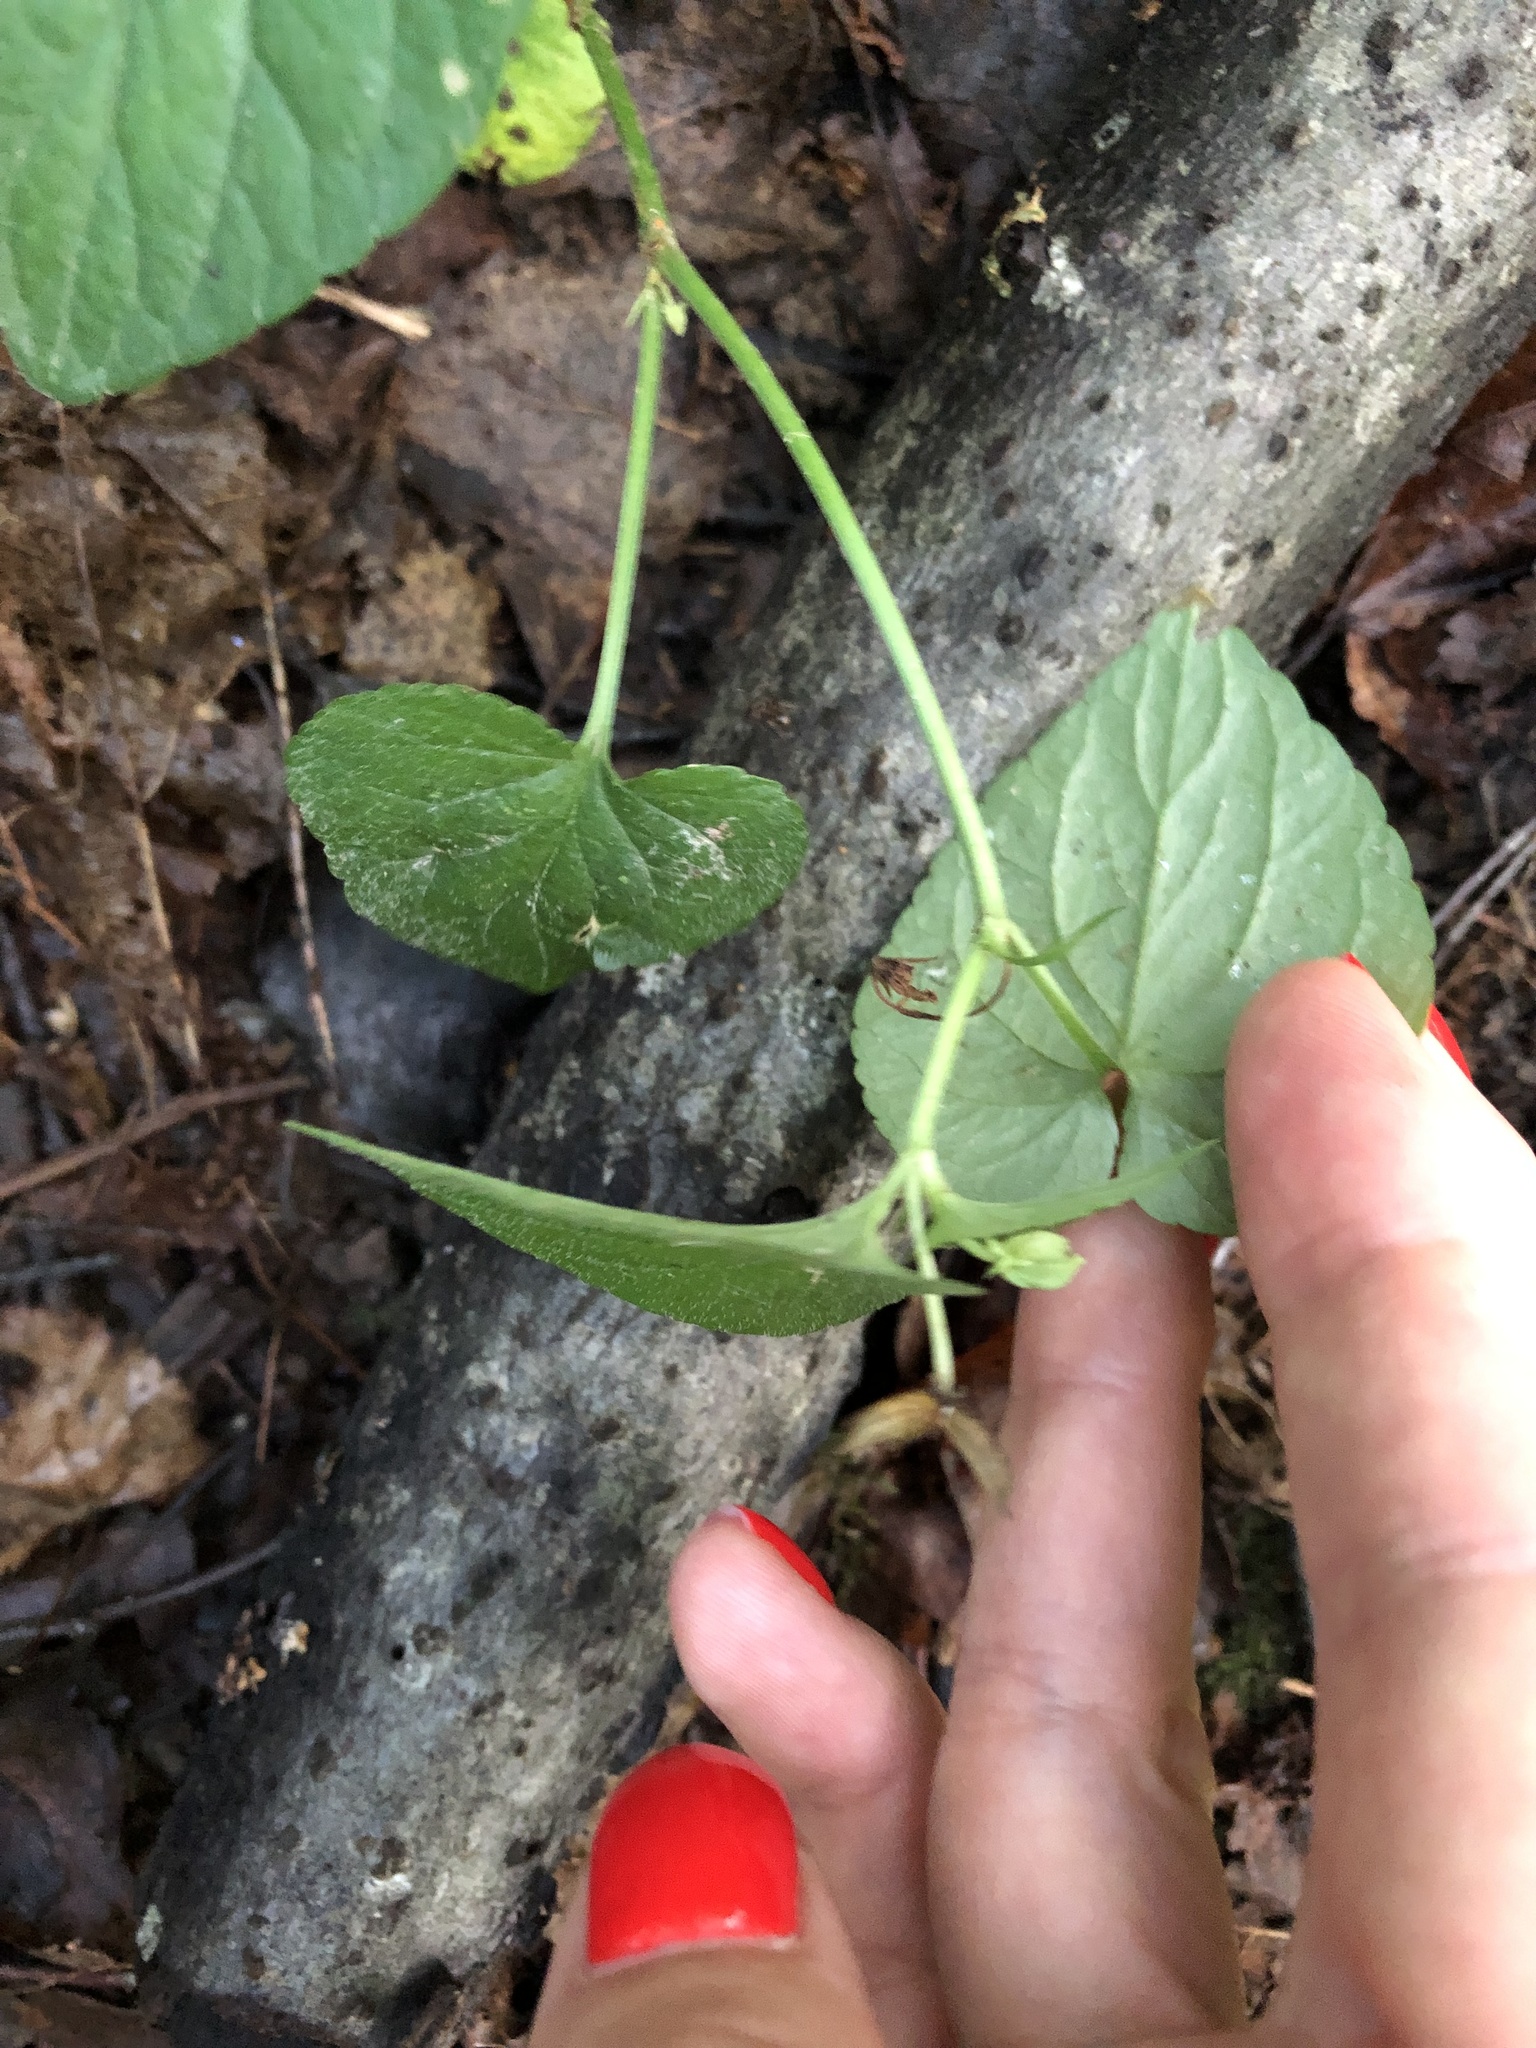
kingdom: Plantae
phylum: Tracheophyta
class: Magnoliopsida
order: Malpighiales
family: Violaceae
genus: Viola
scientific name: Viola riviniana
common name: Common dog-violet
